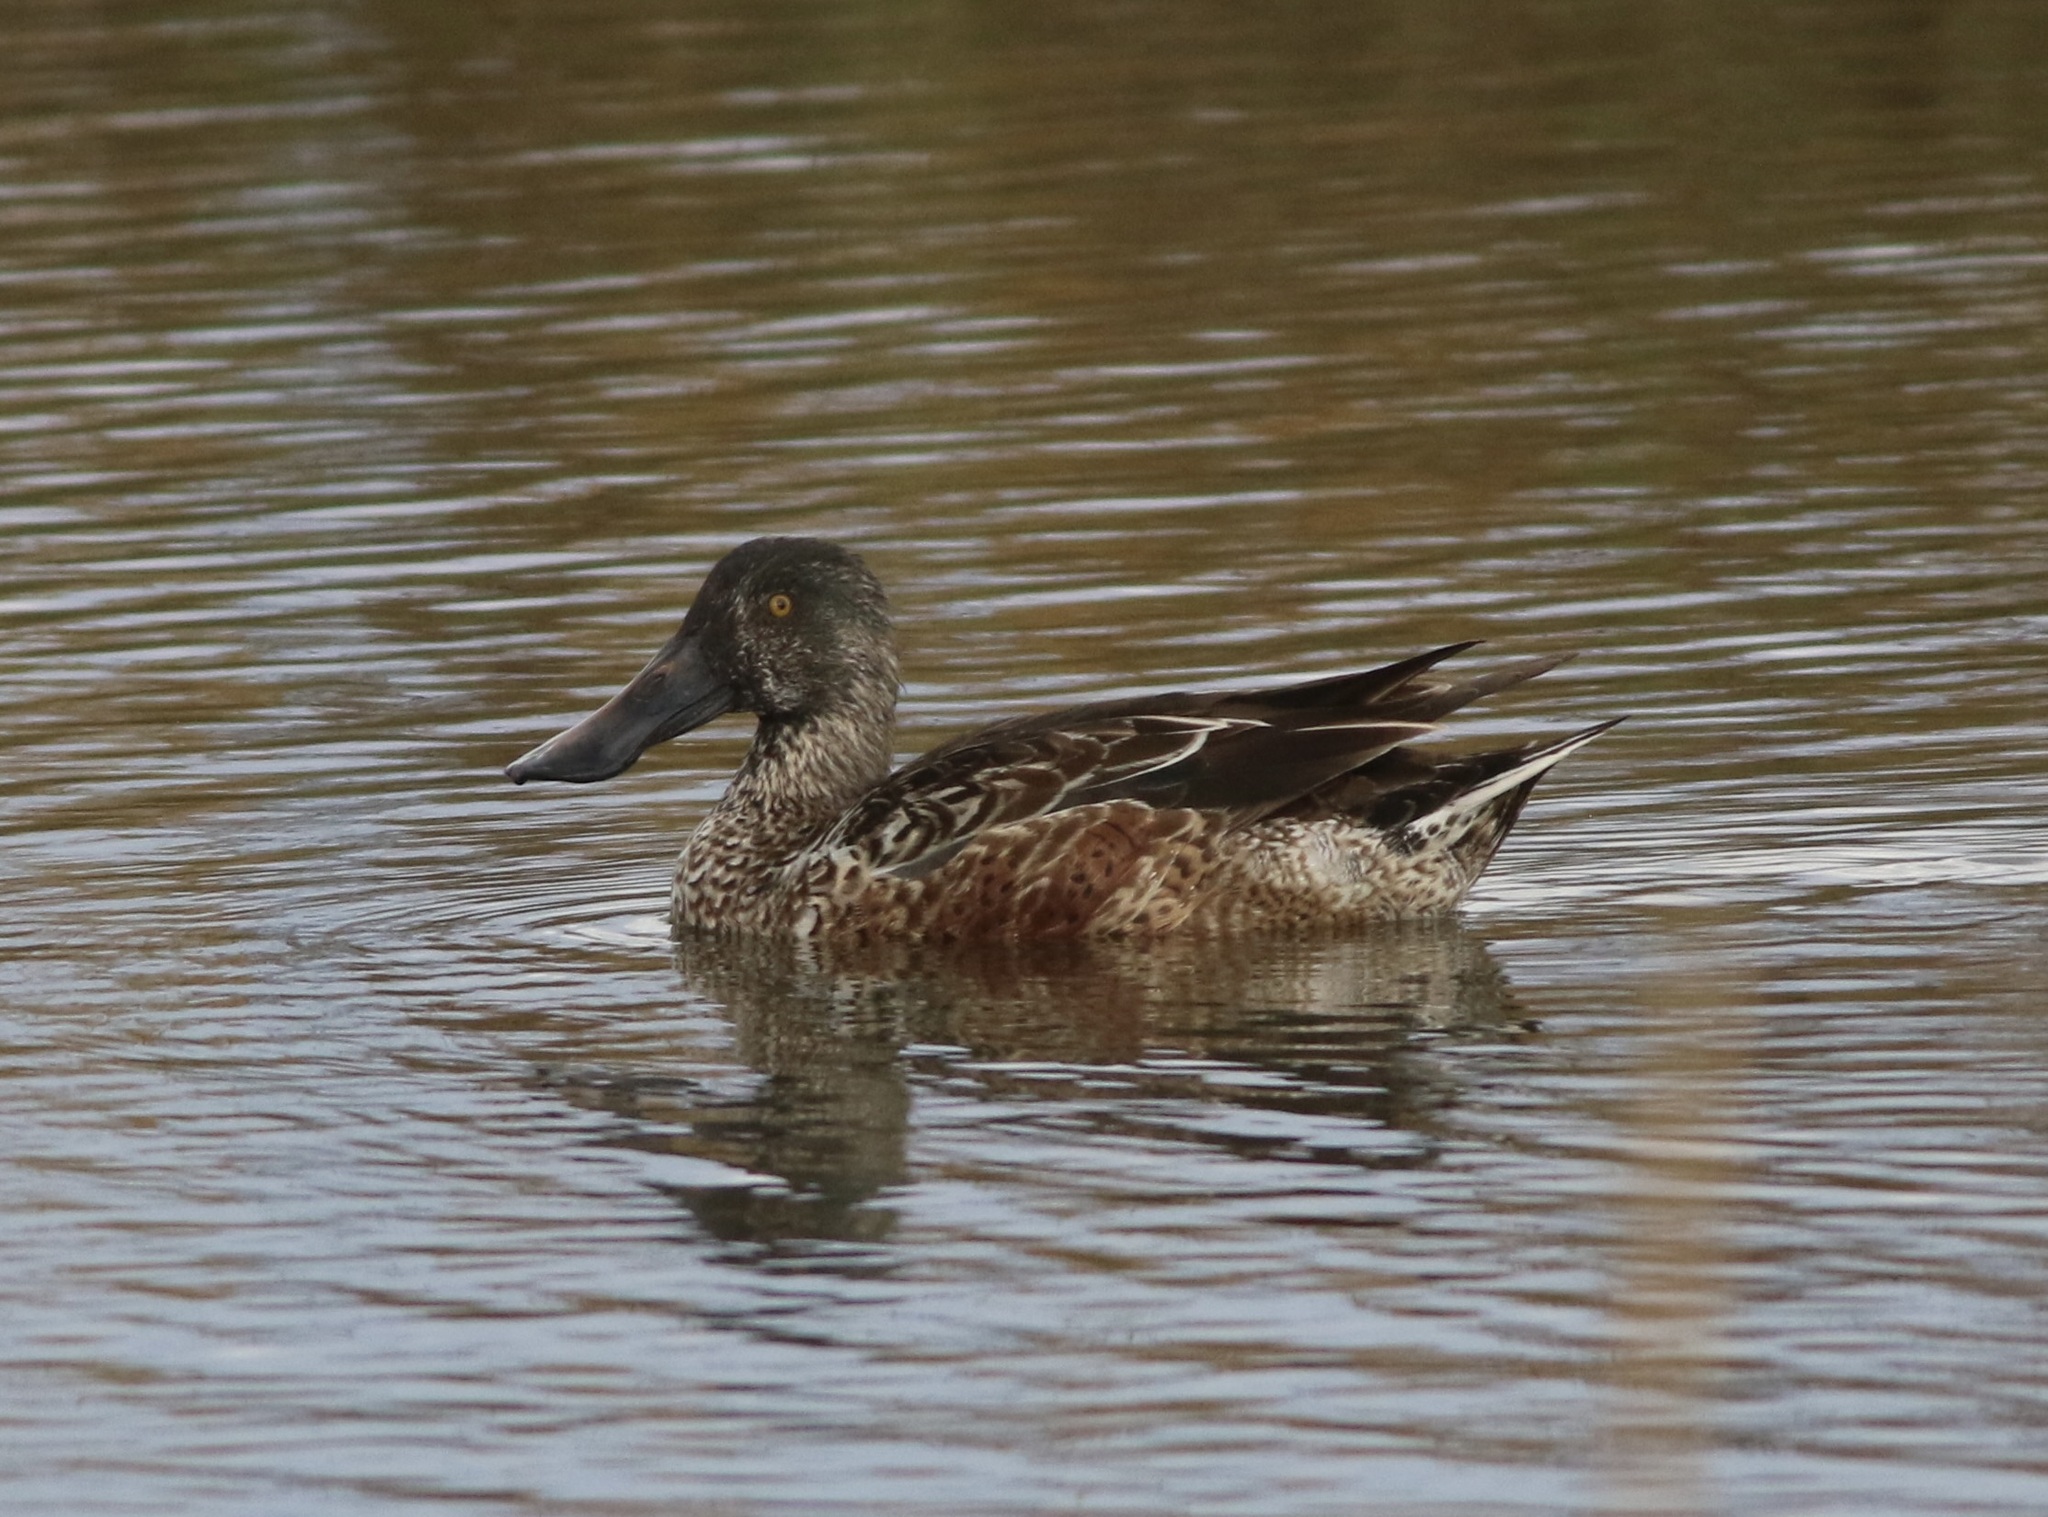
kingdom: Animalia
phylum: Chordata
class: Aves
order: Anseriformes
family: Anatidae
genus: Spatula
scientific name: Spatula clypeata
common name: Northern shoveler
